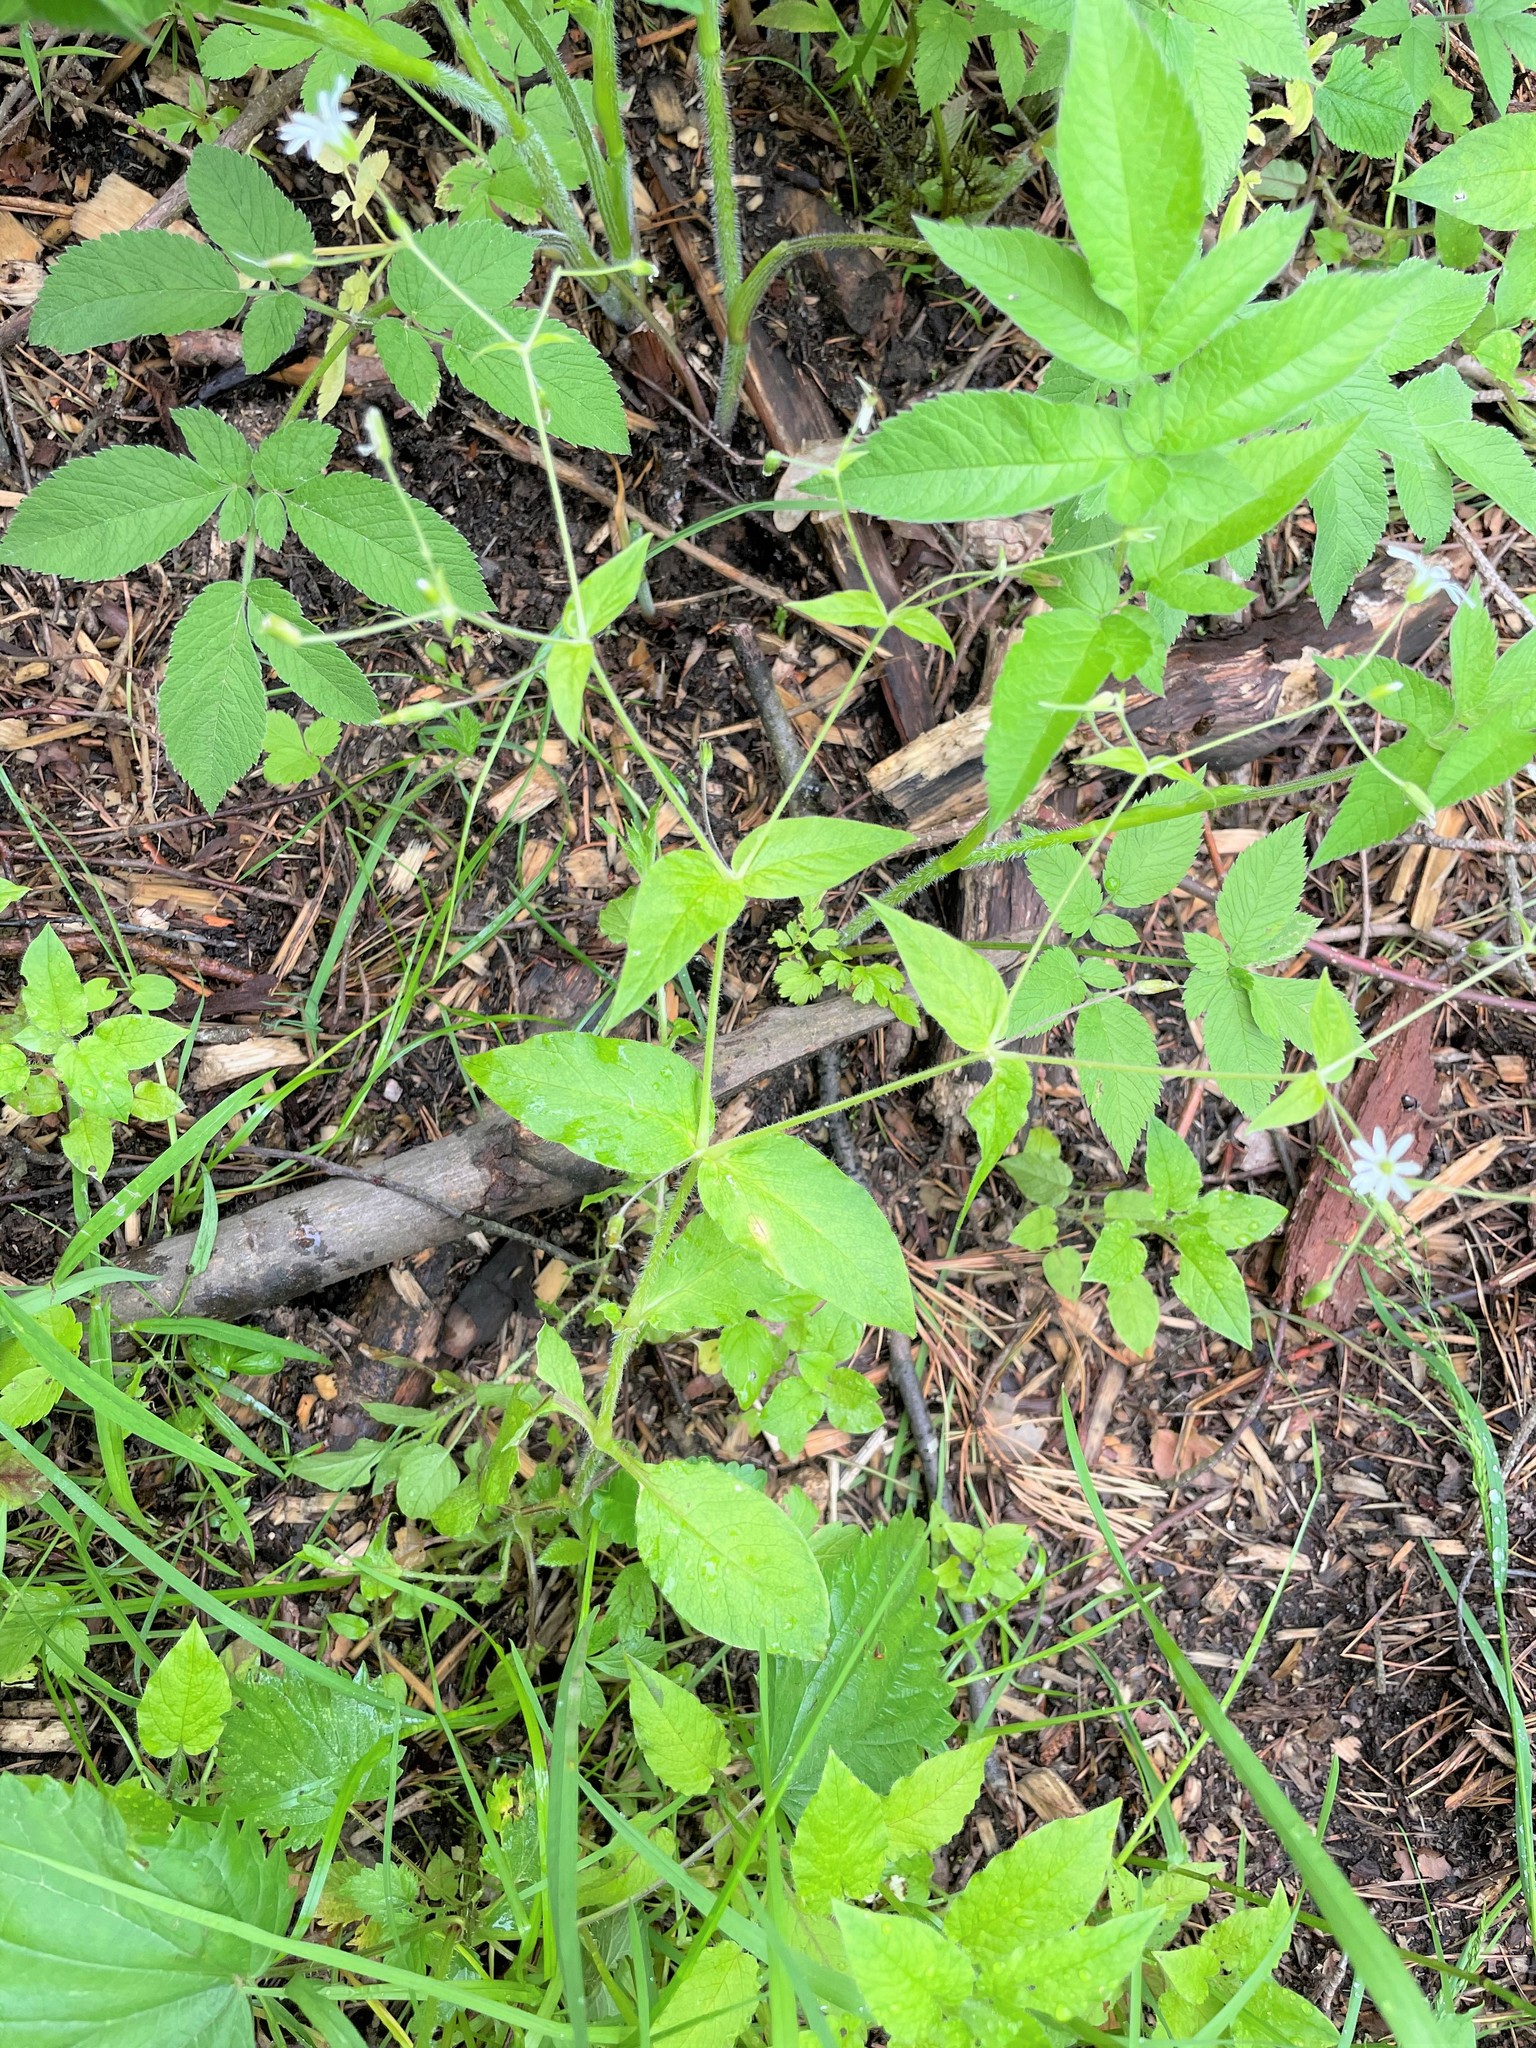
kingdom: Plantae
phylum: Tracheophyta
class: Magnoliopsida
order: Caryophyllales
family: Caryophyllaceae
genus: Stellaria
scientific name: Stellaria nemorum
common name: Wood stitchwort
